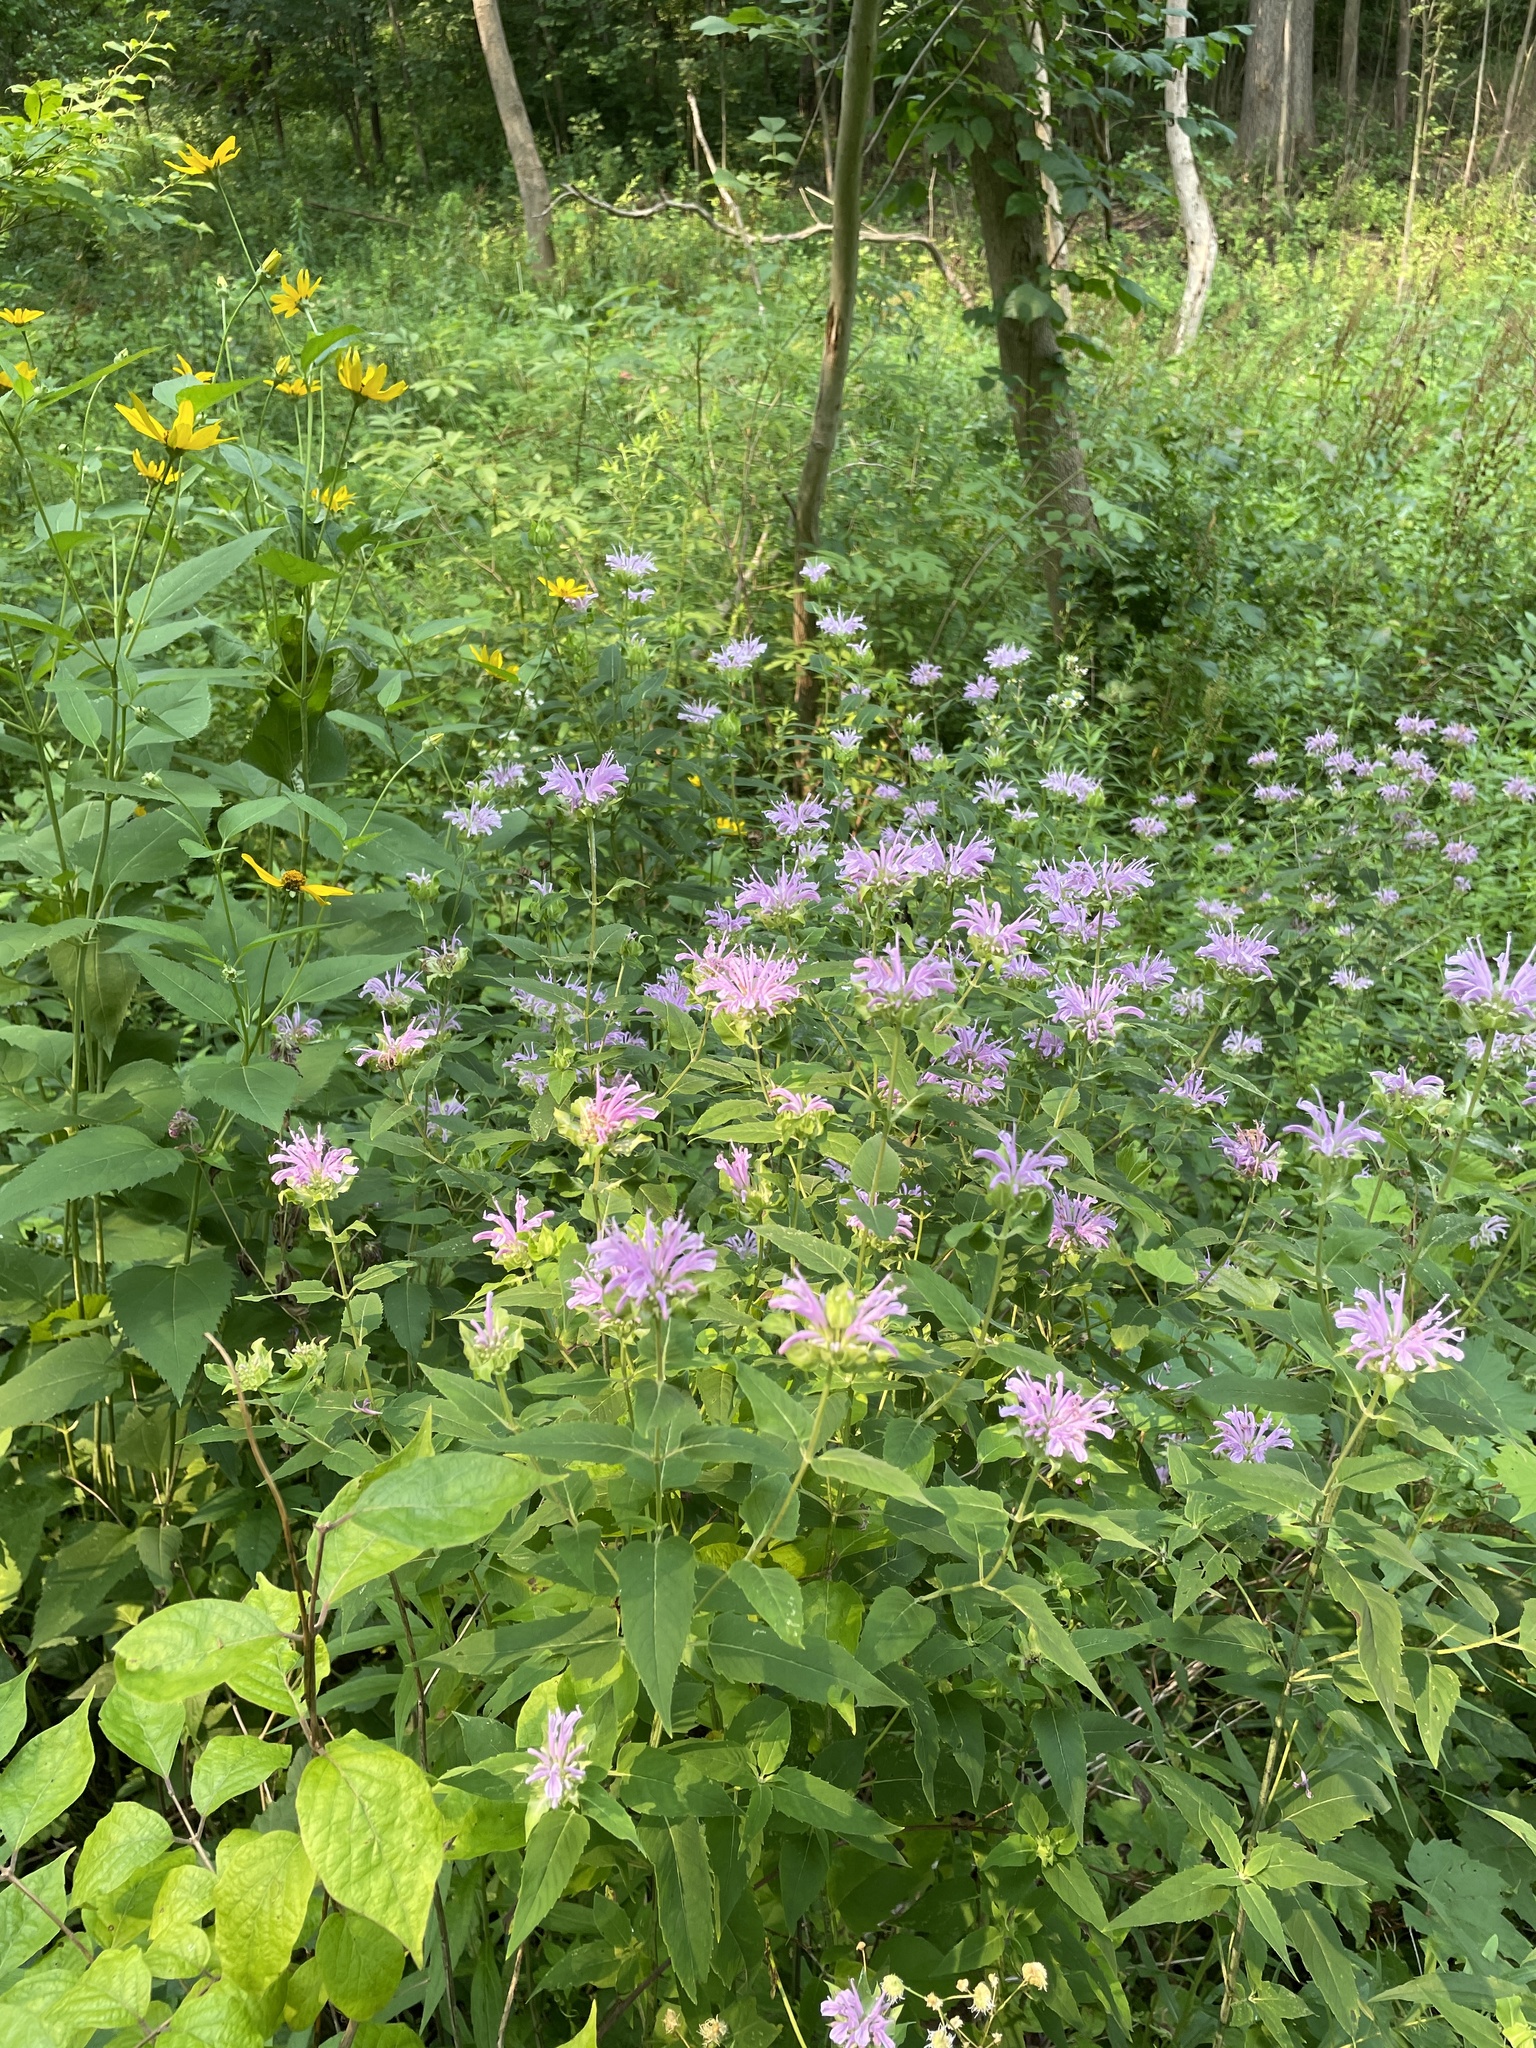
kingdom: Plantae
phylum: Tracheophyta
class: Magnoliopsida
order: Lamiales
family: Lamiaceae
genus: Monarda
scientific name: Monarda fistulosa
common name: Purple beebalm
